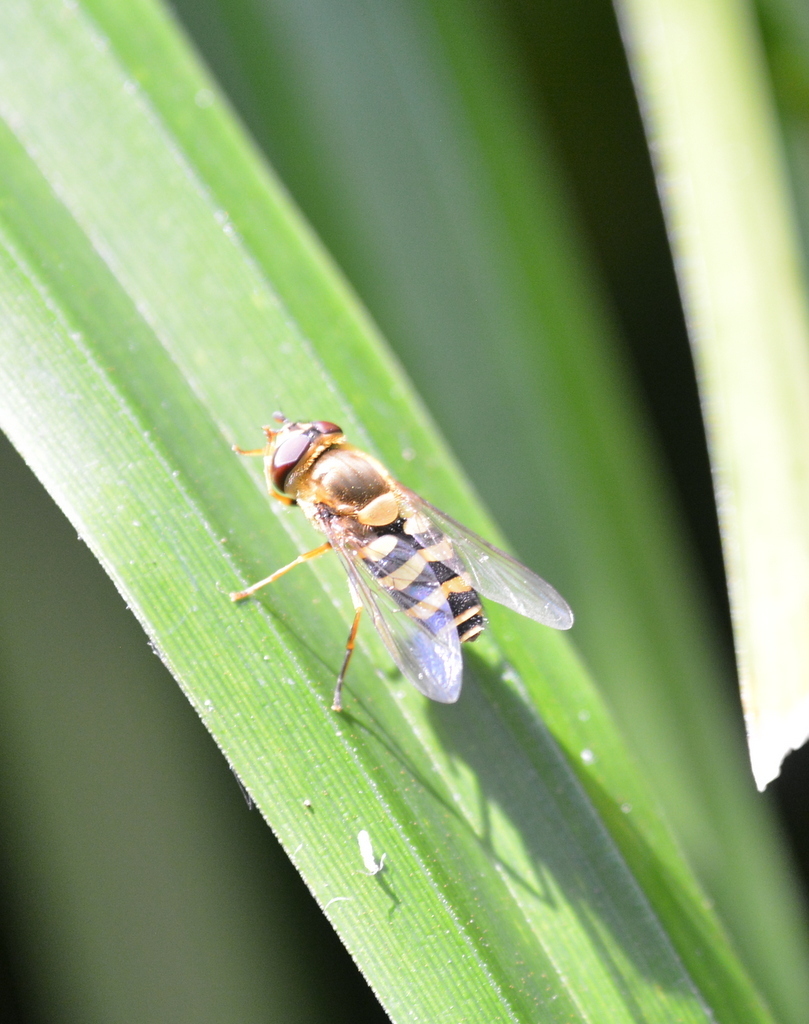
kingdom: Animalia
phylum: Arthropoda
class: Insecta
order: Diptera
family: Syrphidae
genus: Syrphus
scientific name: Syrphus
